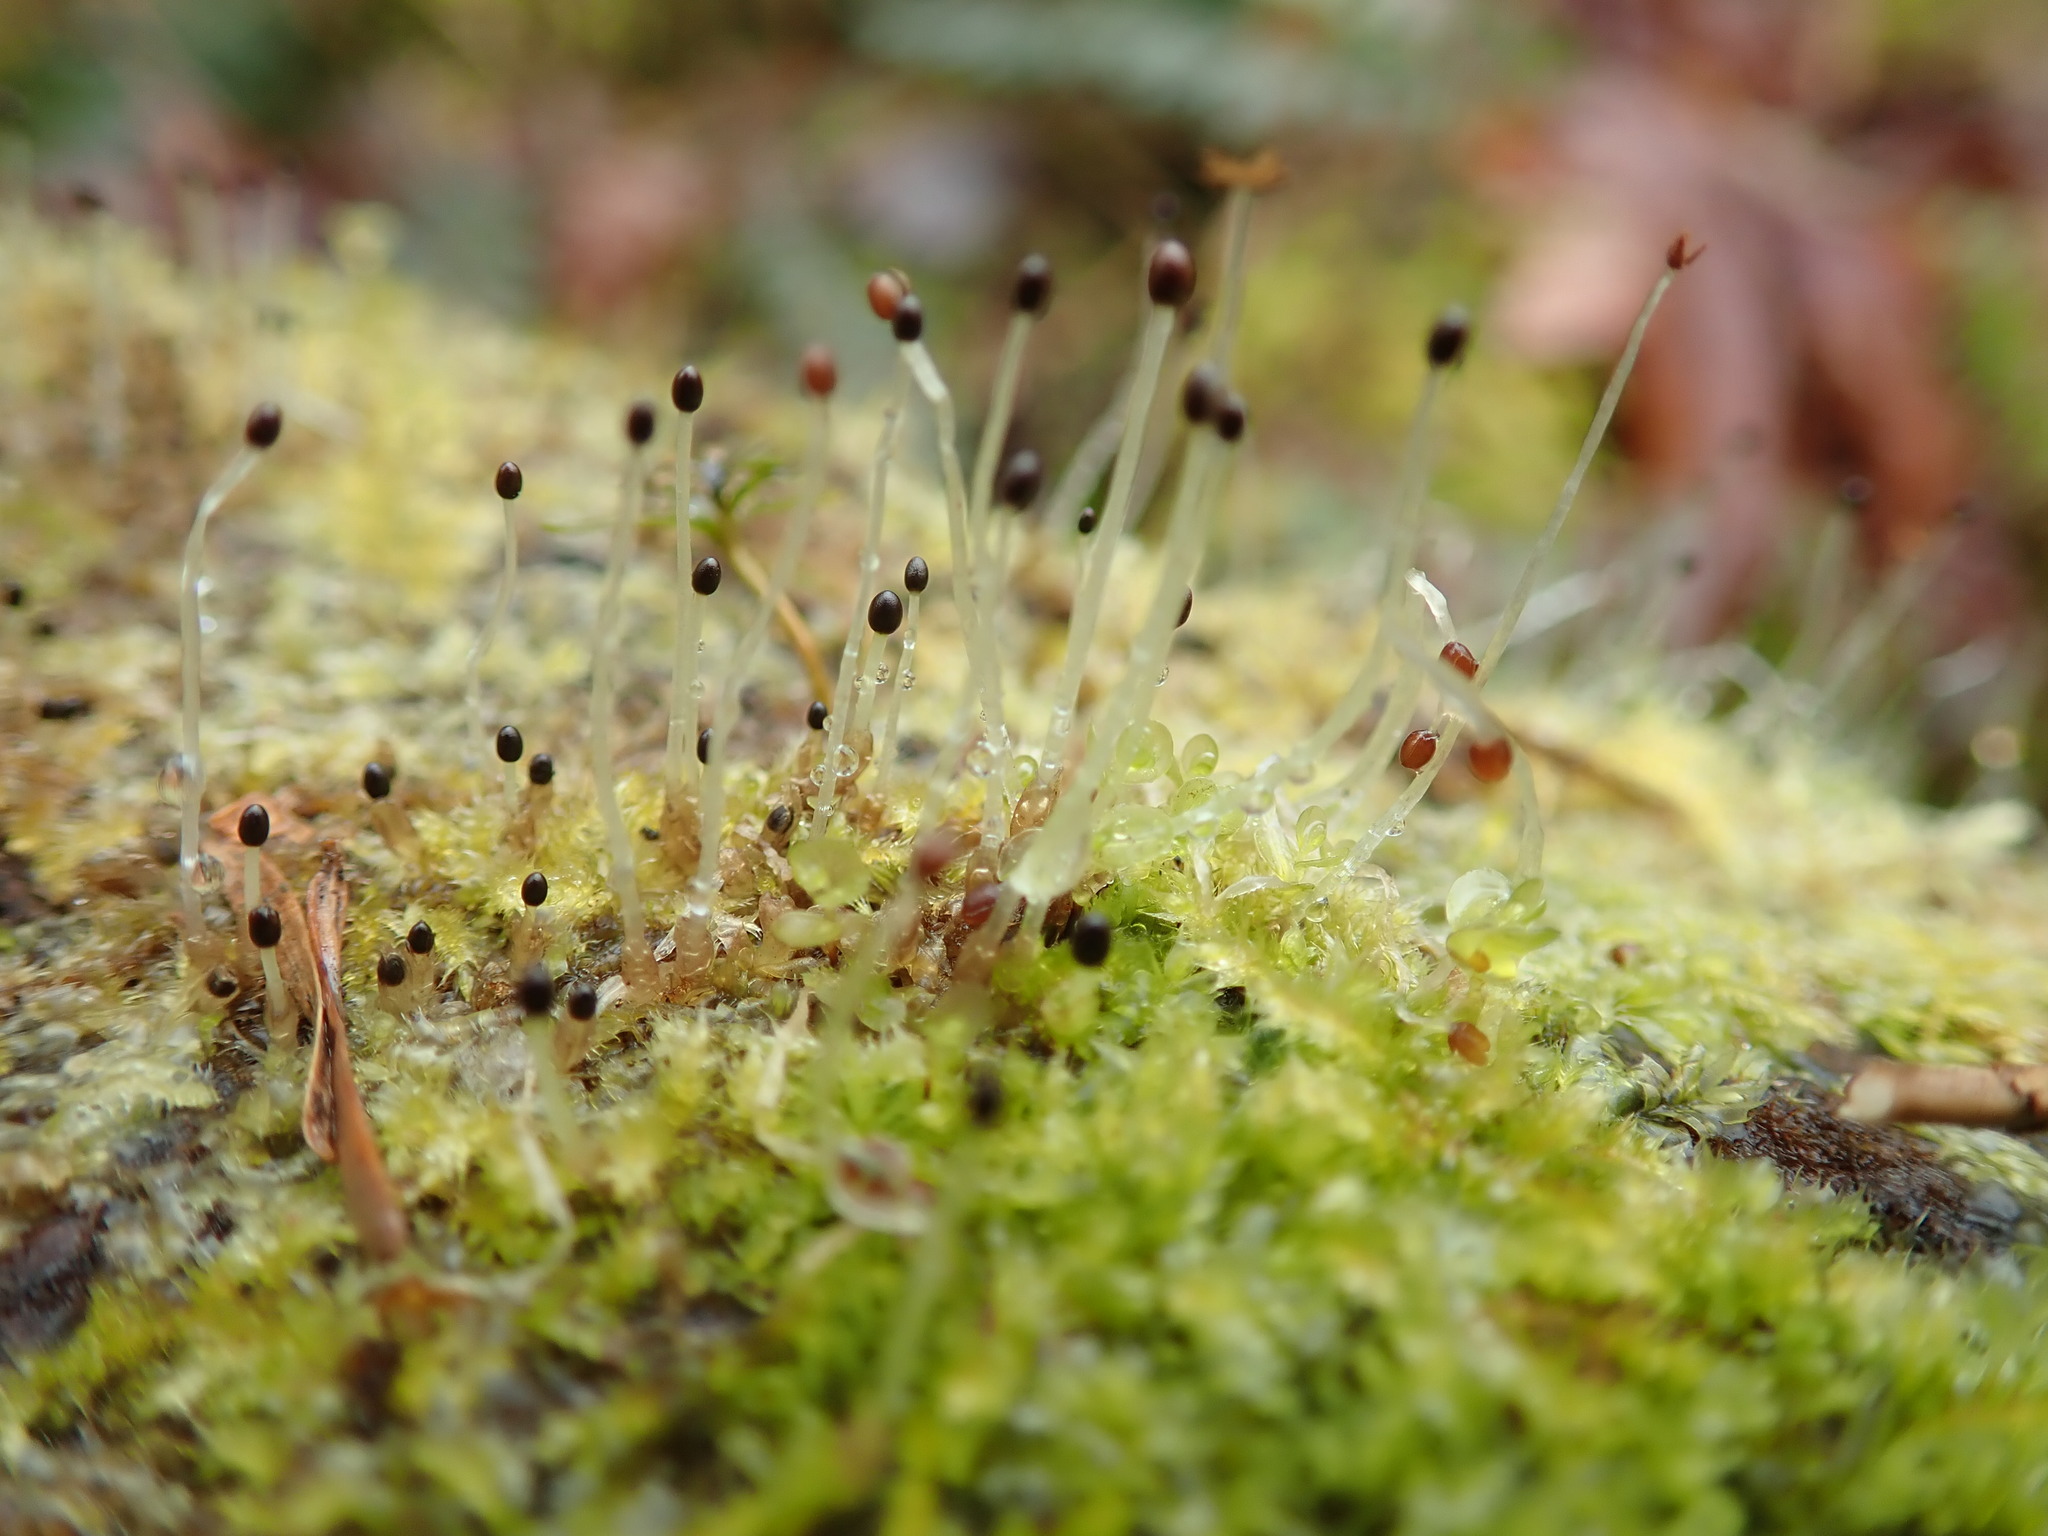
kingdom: Plantae
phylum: Marchantiophyta
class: Jungermanniopsida
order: Jungermanniales
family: Lophocoleaceae
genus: Lophocolea
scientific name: Lophocolea bidentata
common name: Bifid crestwort
